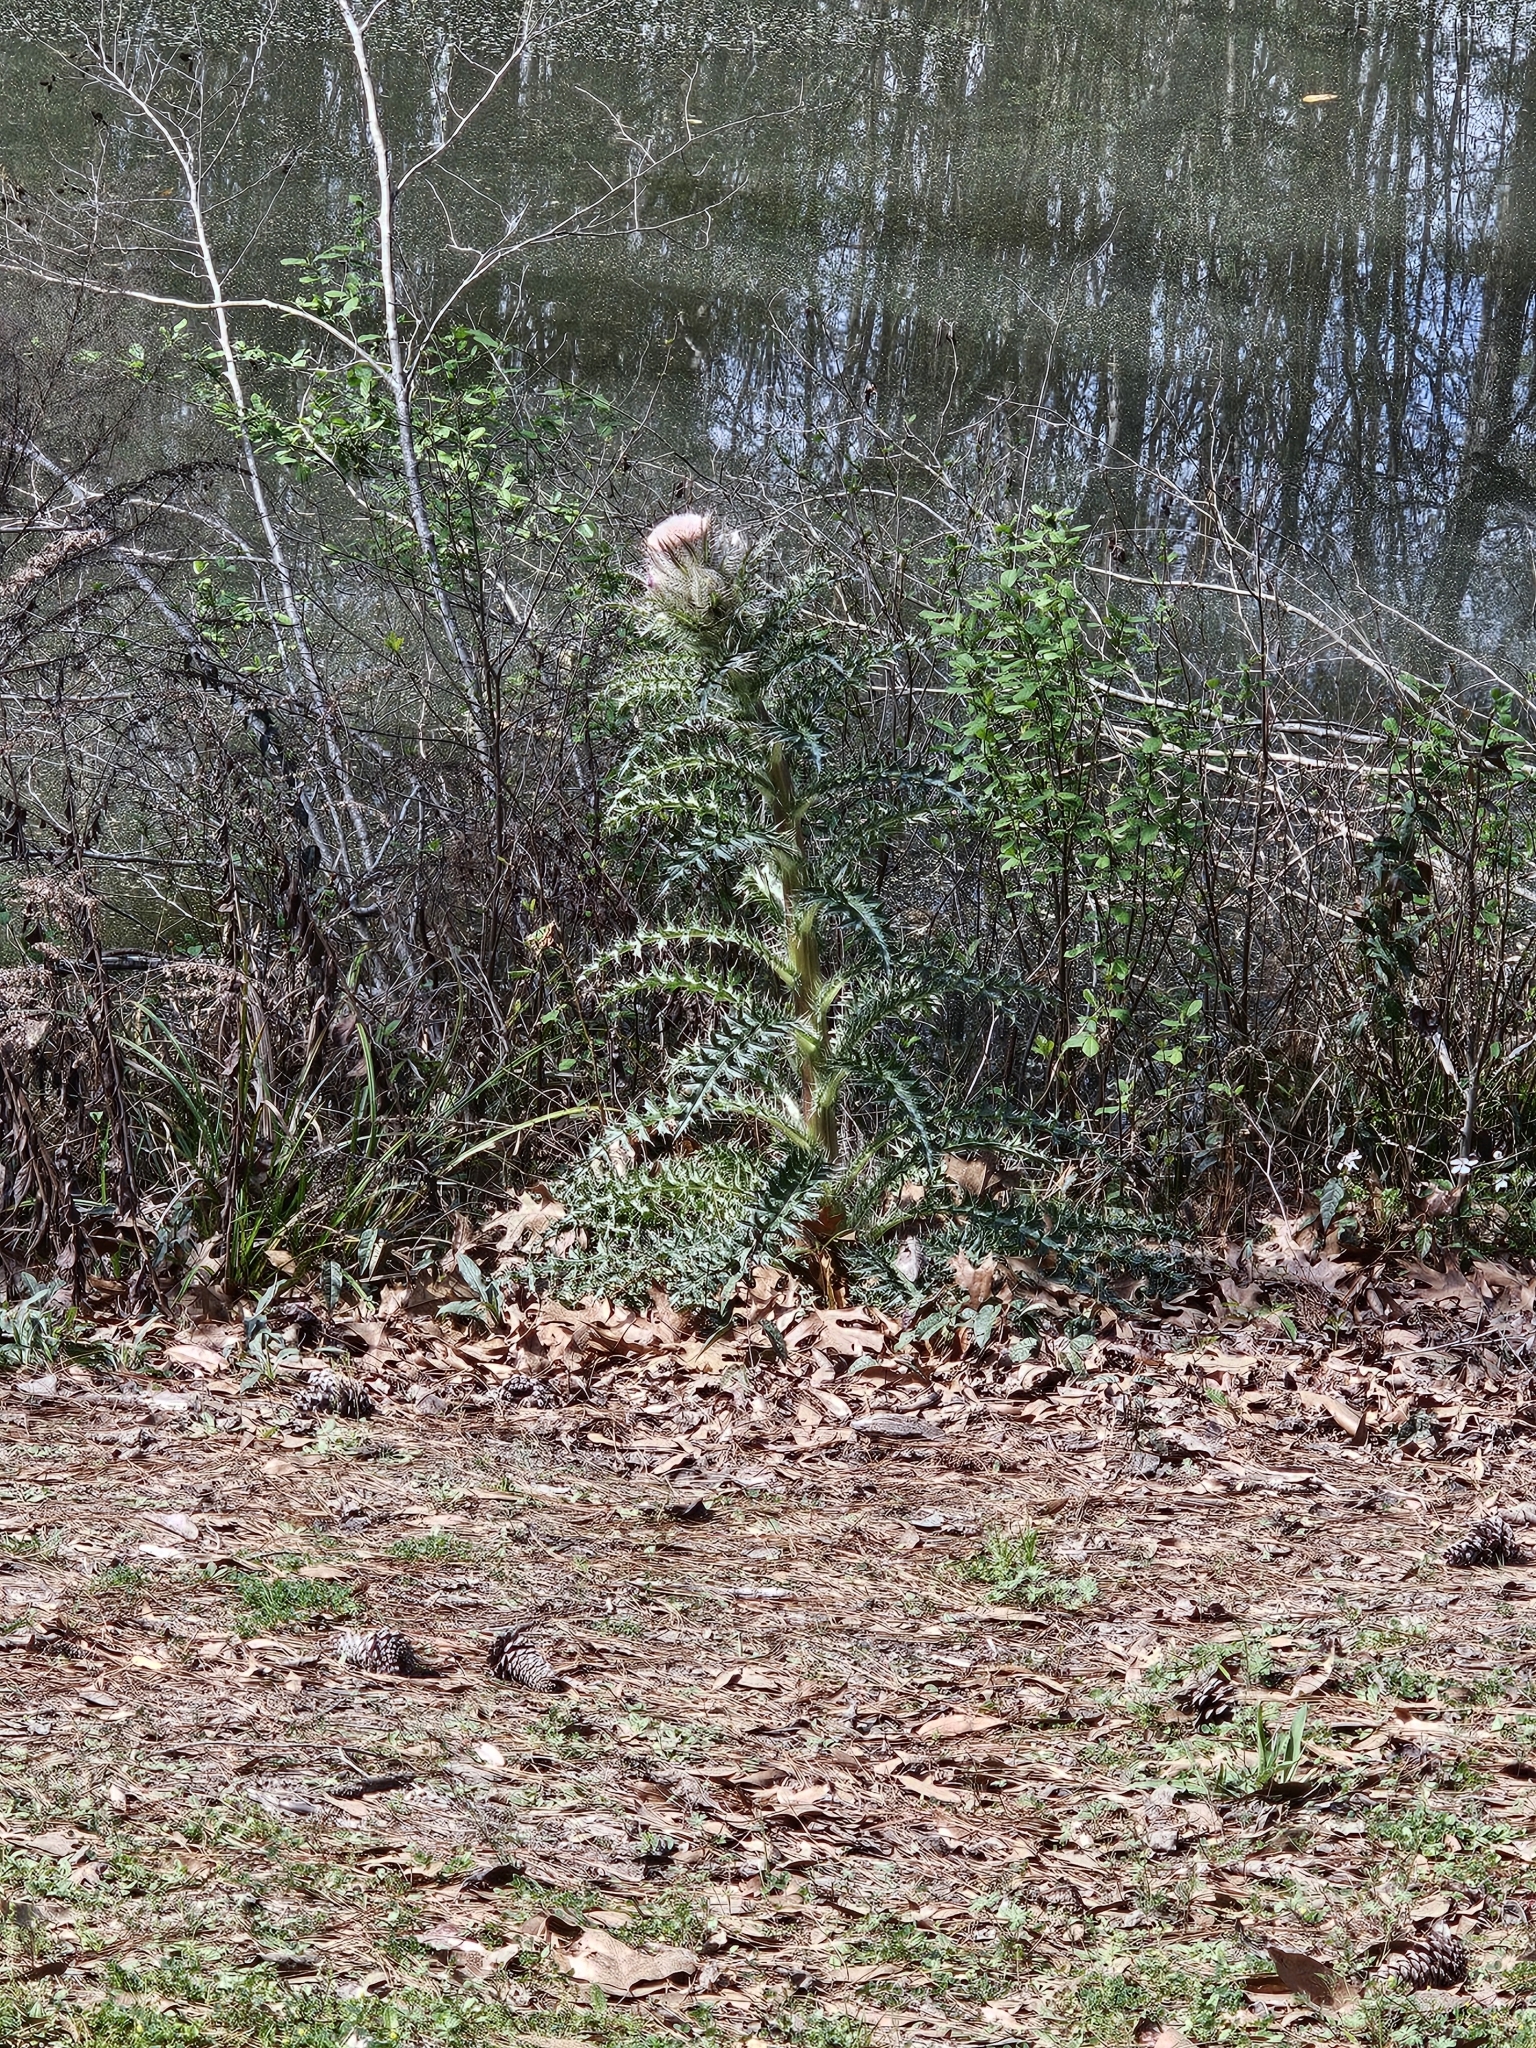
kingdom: Plantae
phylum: Tracheophyta
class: Magnoliopsida
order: Asterales
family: Asteraceae
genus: Cirsium
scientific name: Cirsium horridulum
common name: Bristly thistle
